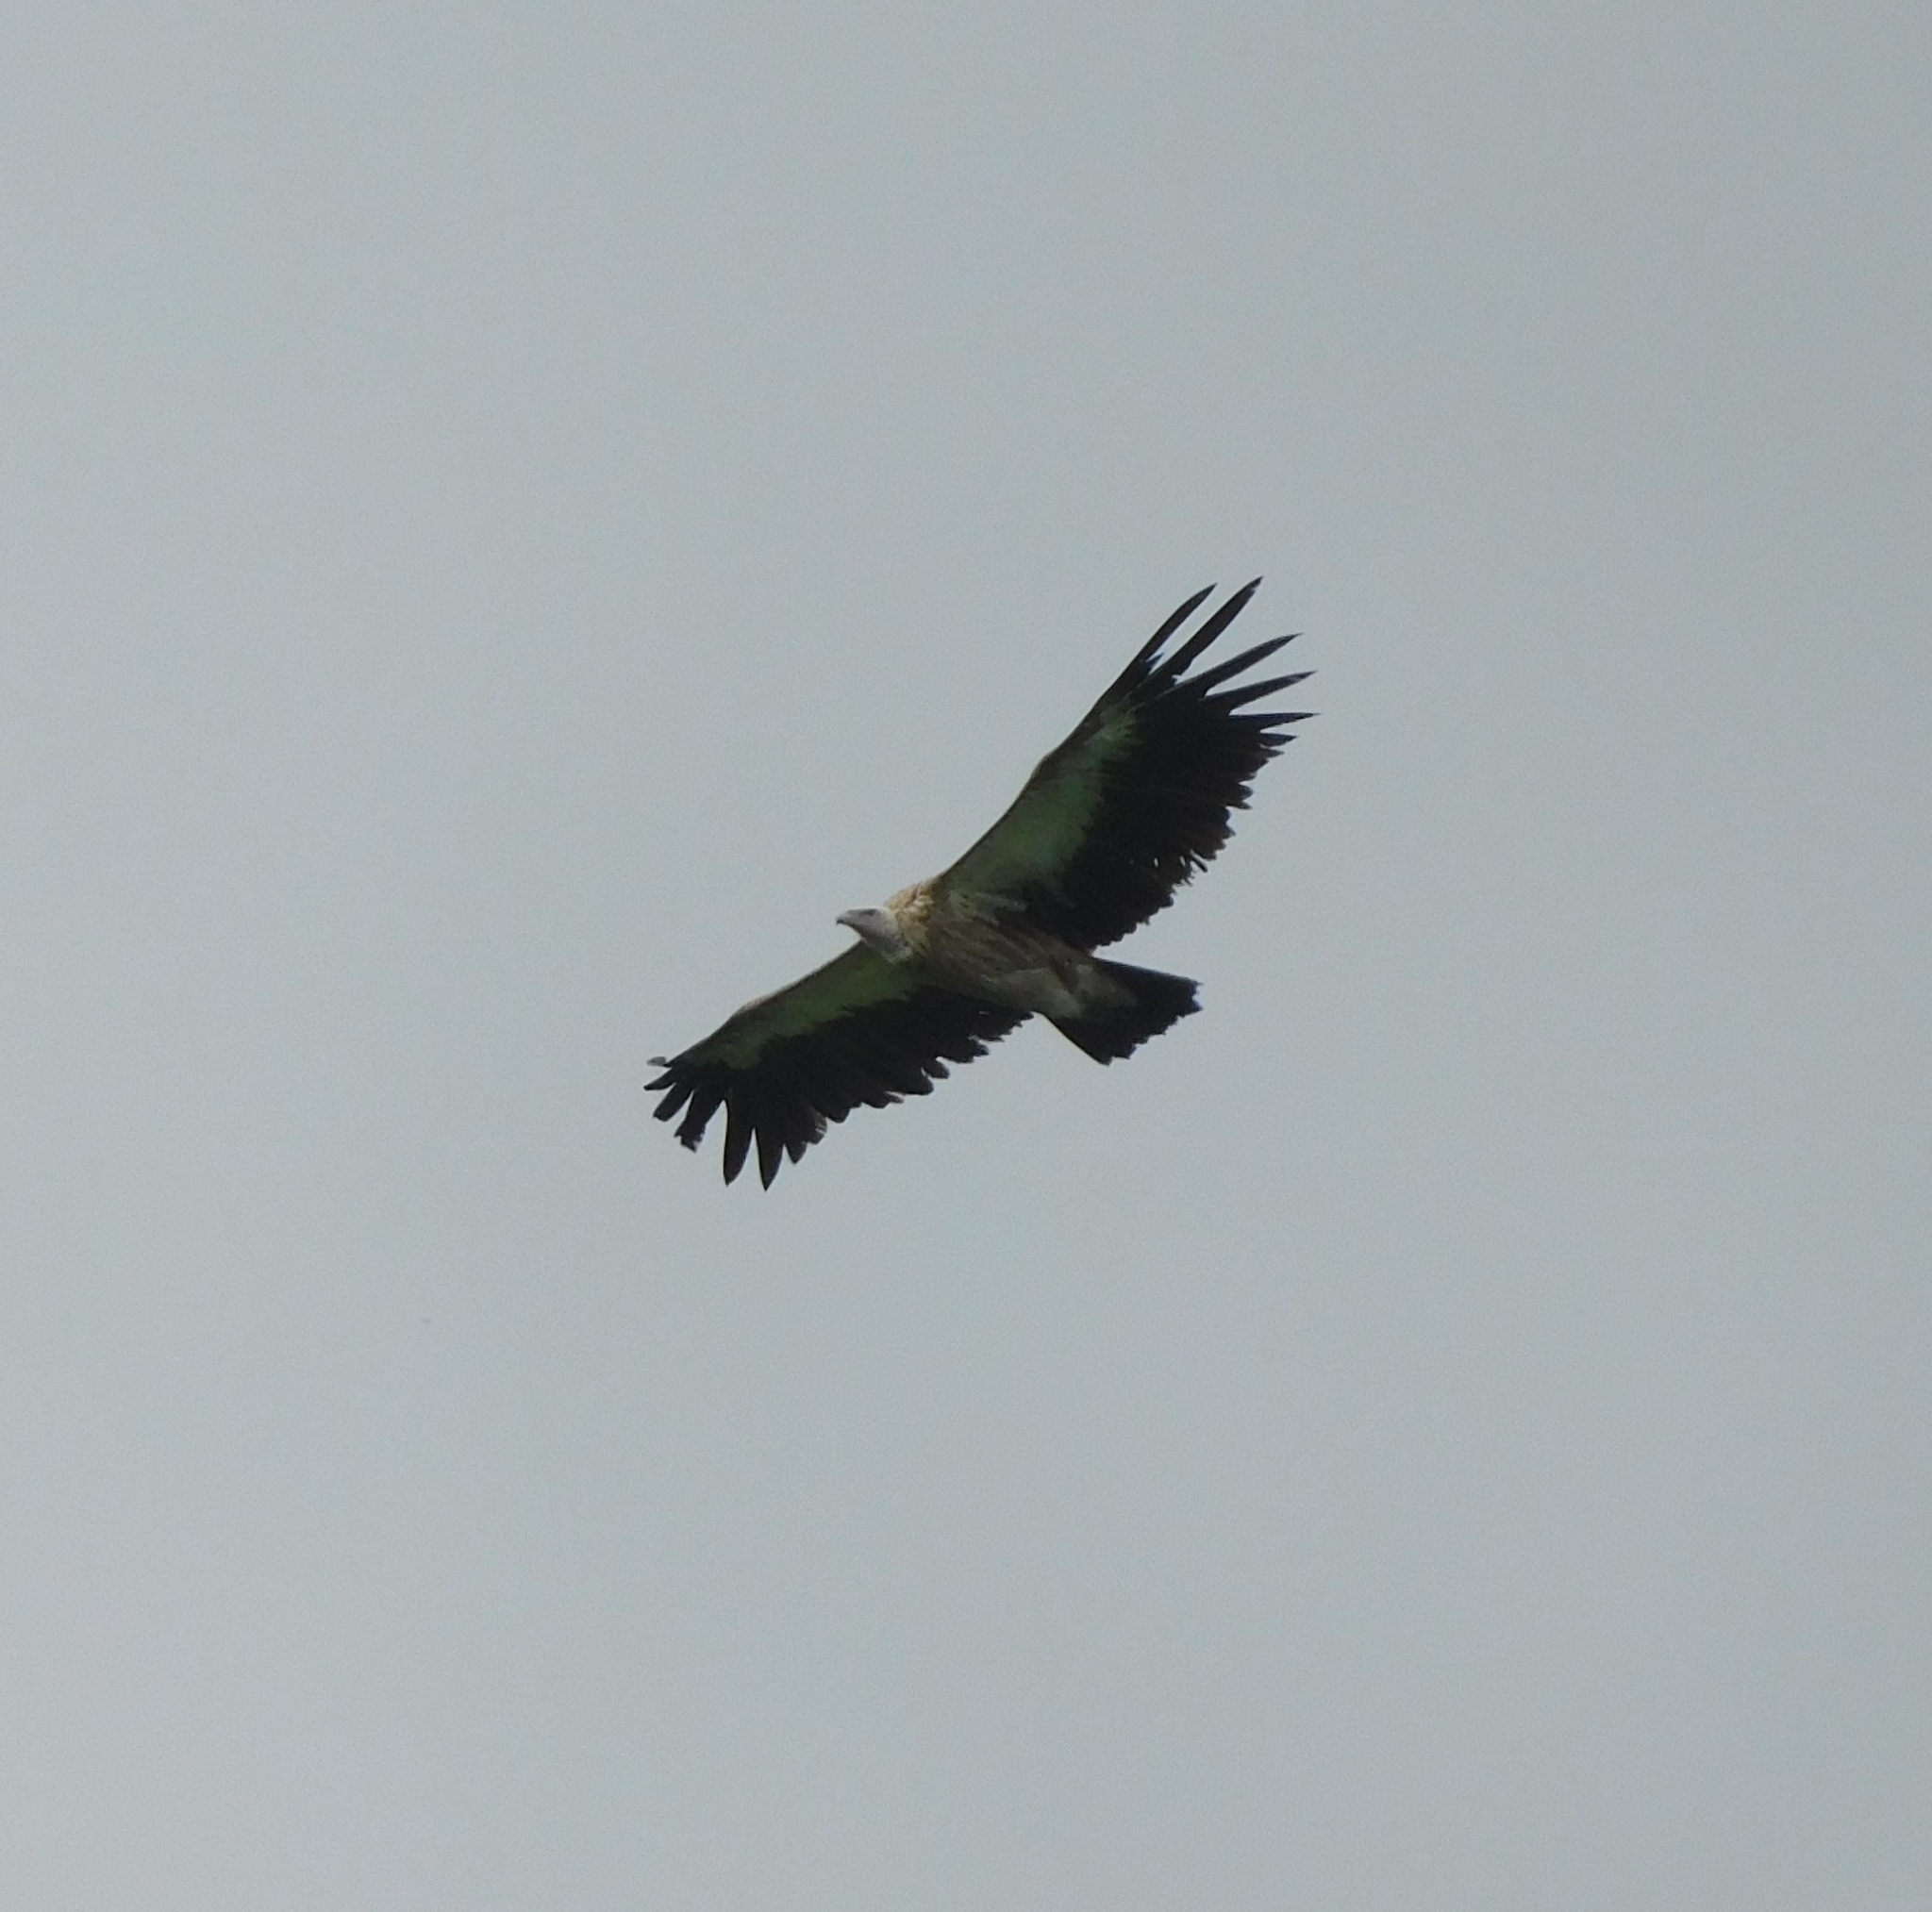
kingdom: Animalia
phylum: Chordata
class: Aves
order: Accipitriformes
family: Accipitridae
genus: Gyps
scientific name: Gyps himalayensis
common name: Himalayan griffon
